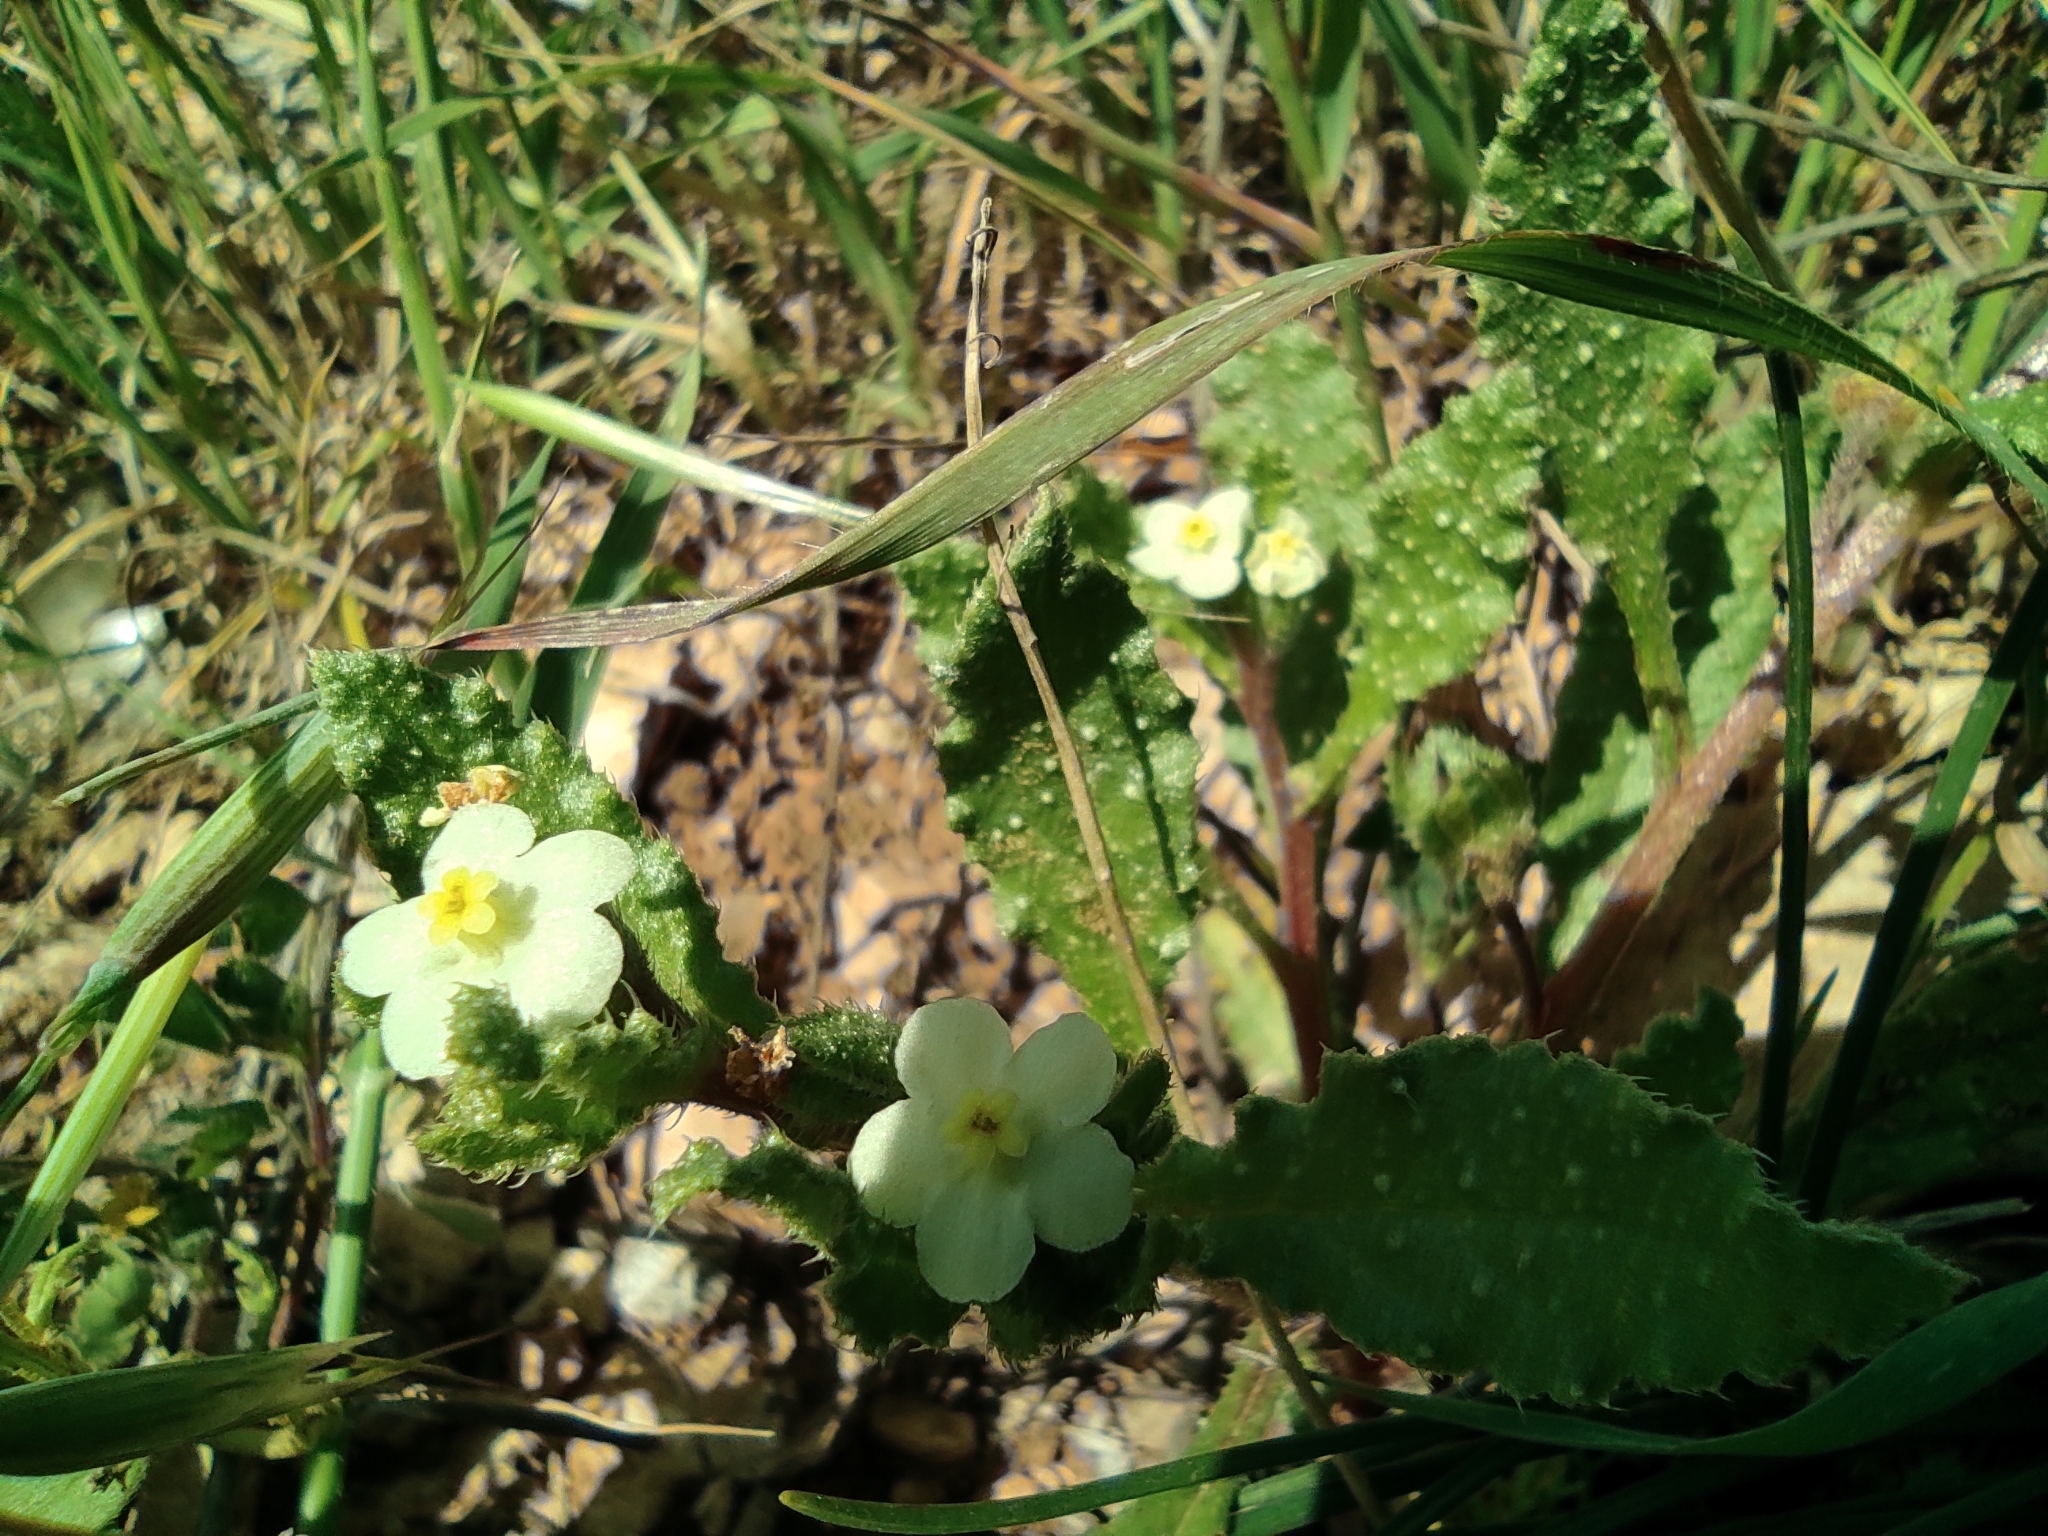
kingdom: Plantae
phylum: Tracheophyta
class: Magnoliopsida
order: Boraginales
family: Boraginaceae
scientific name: Boraginaceae
